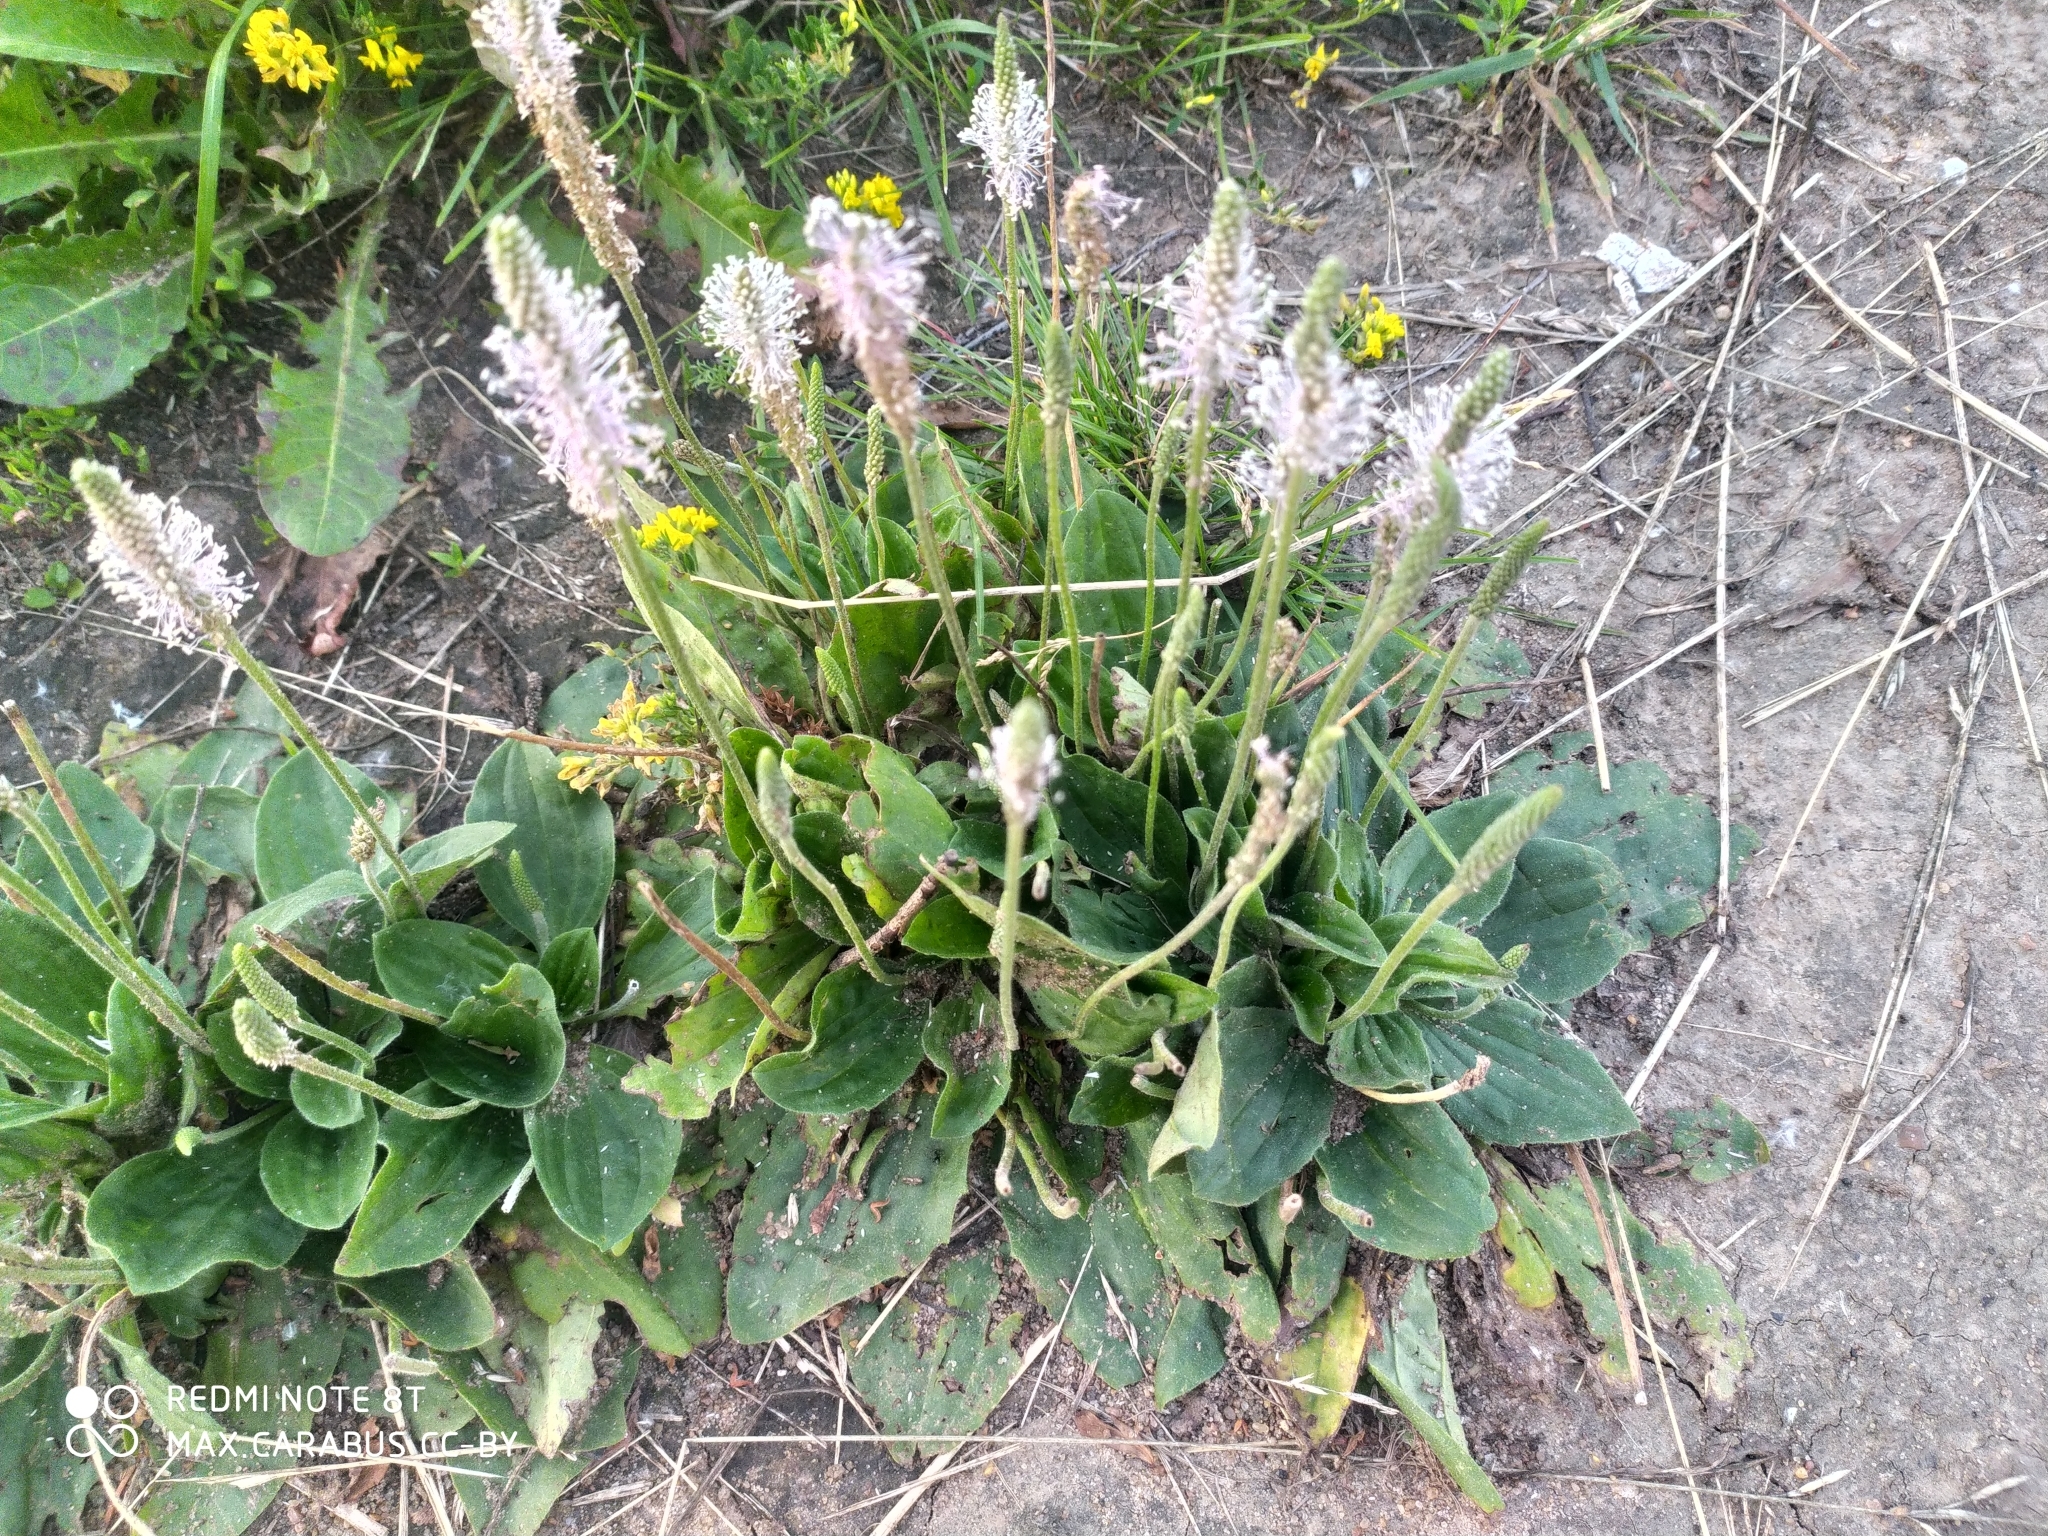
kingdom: Plantae
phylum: Tracheophyta
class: Magnoliopsida
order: Lamiales
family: Plantaginaceae
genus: Plantago
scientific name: Plantago media
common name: Hoary plantain
